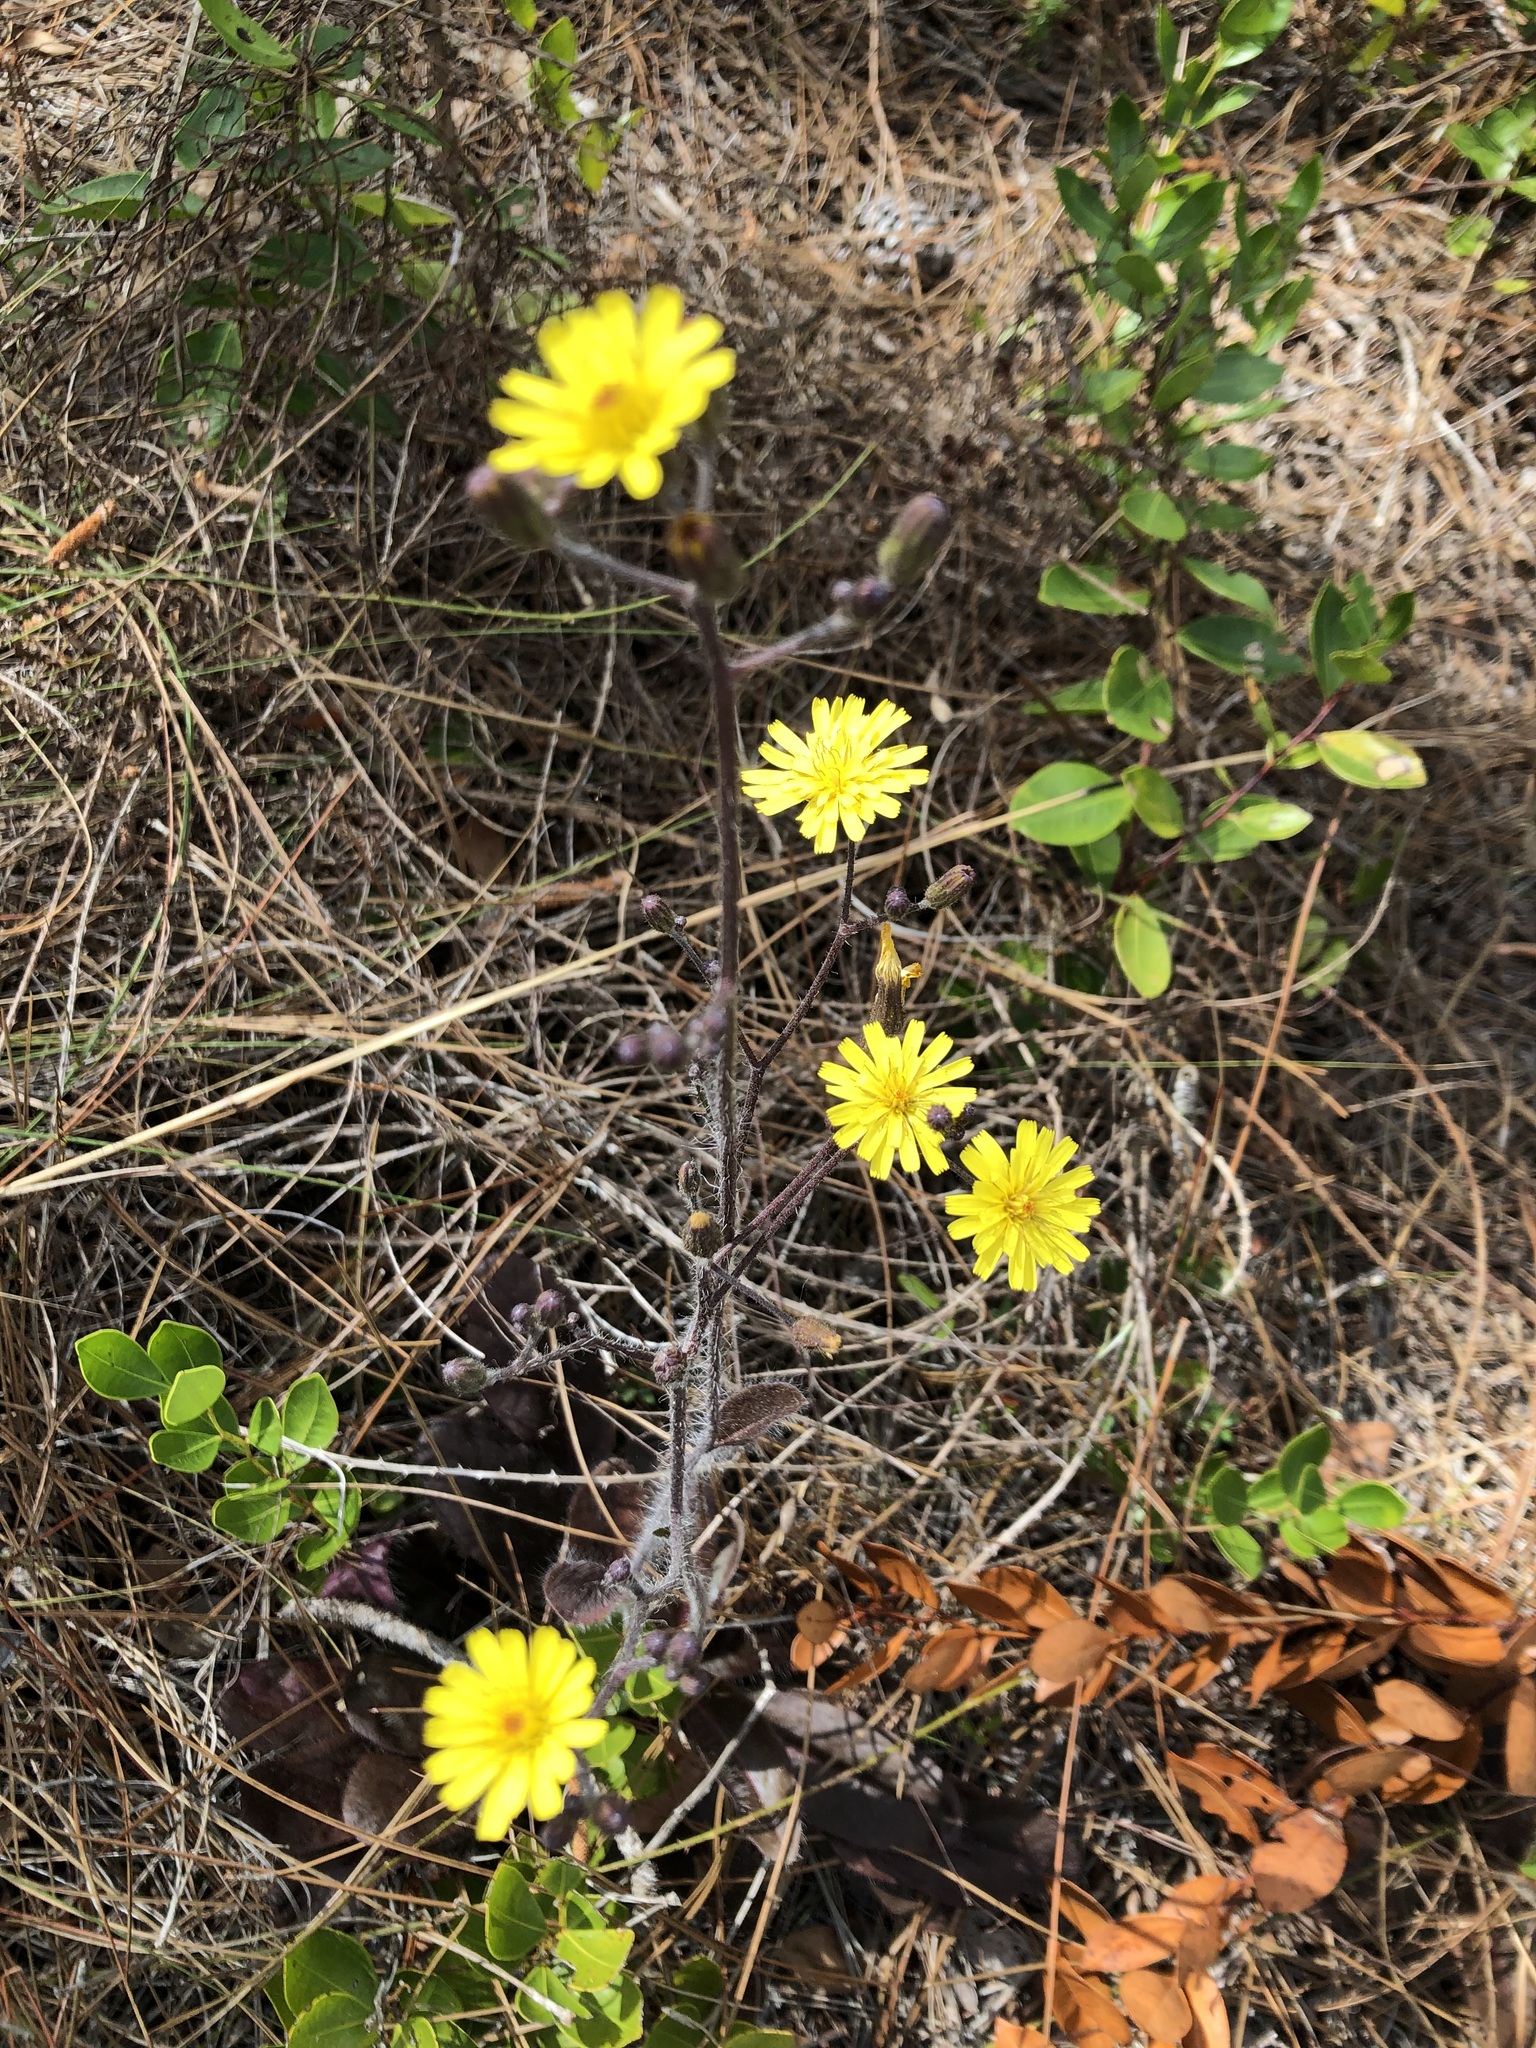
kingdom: Plantae
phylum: Tracheophyta
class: Magnoliopsida
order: Asterales
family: Asteraceae
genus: Hieracium
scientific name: Hieracium megacephalum
